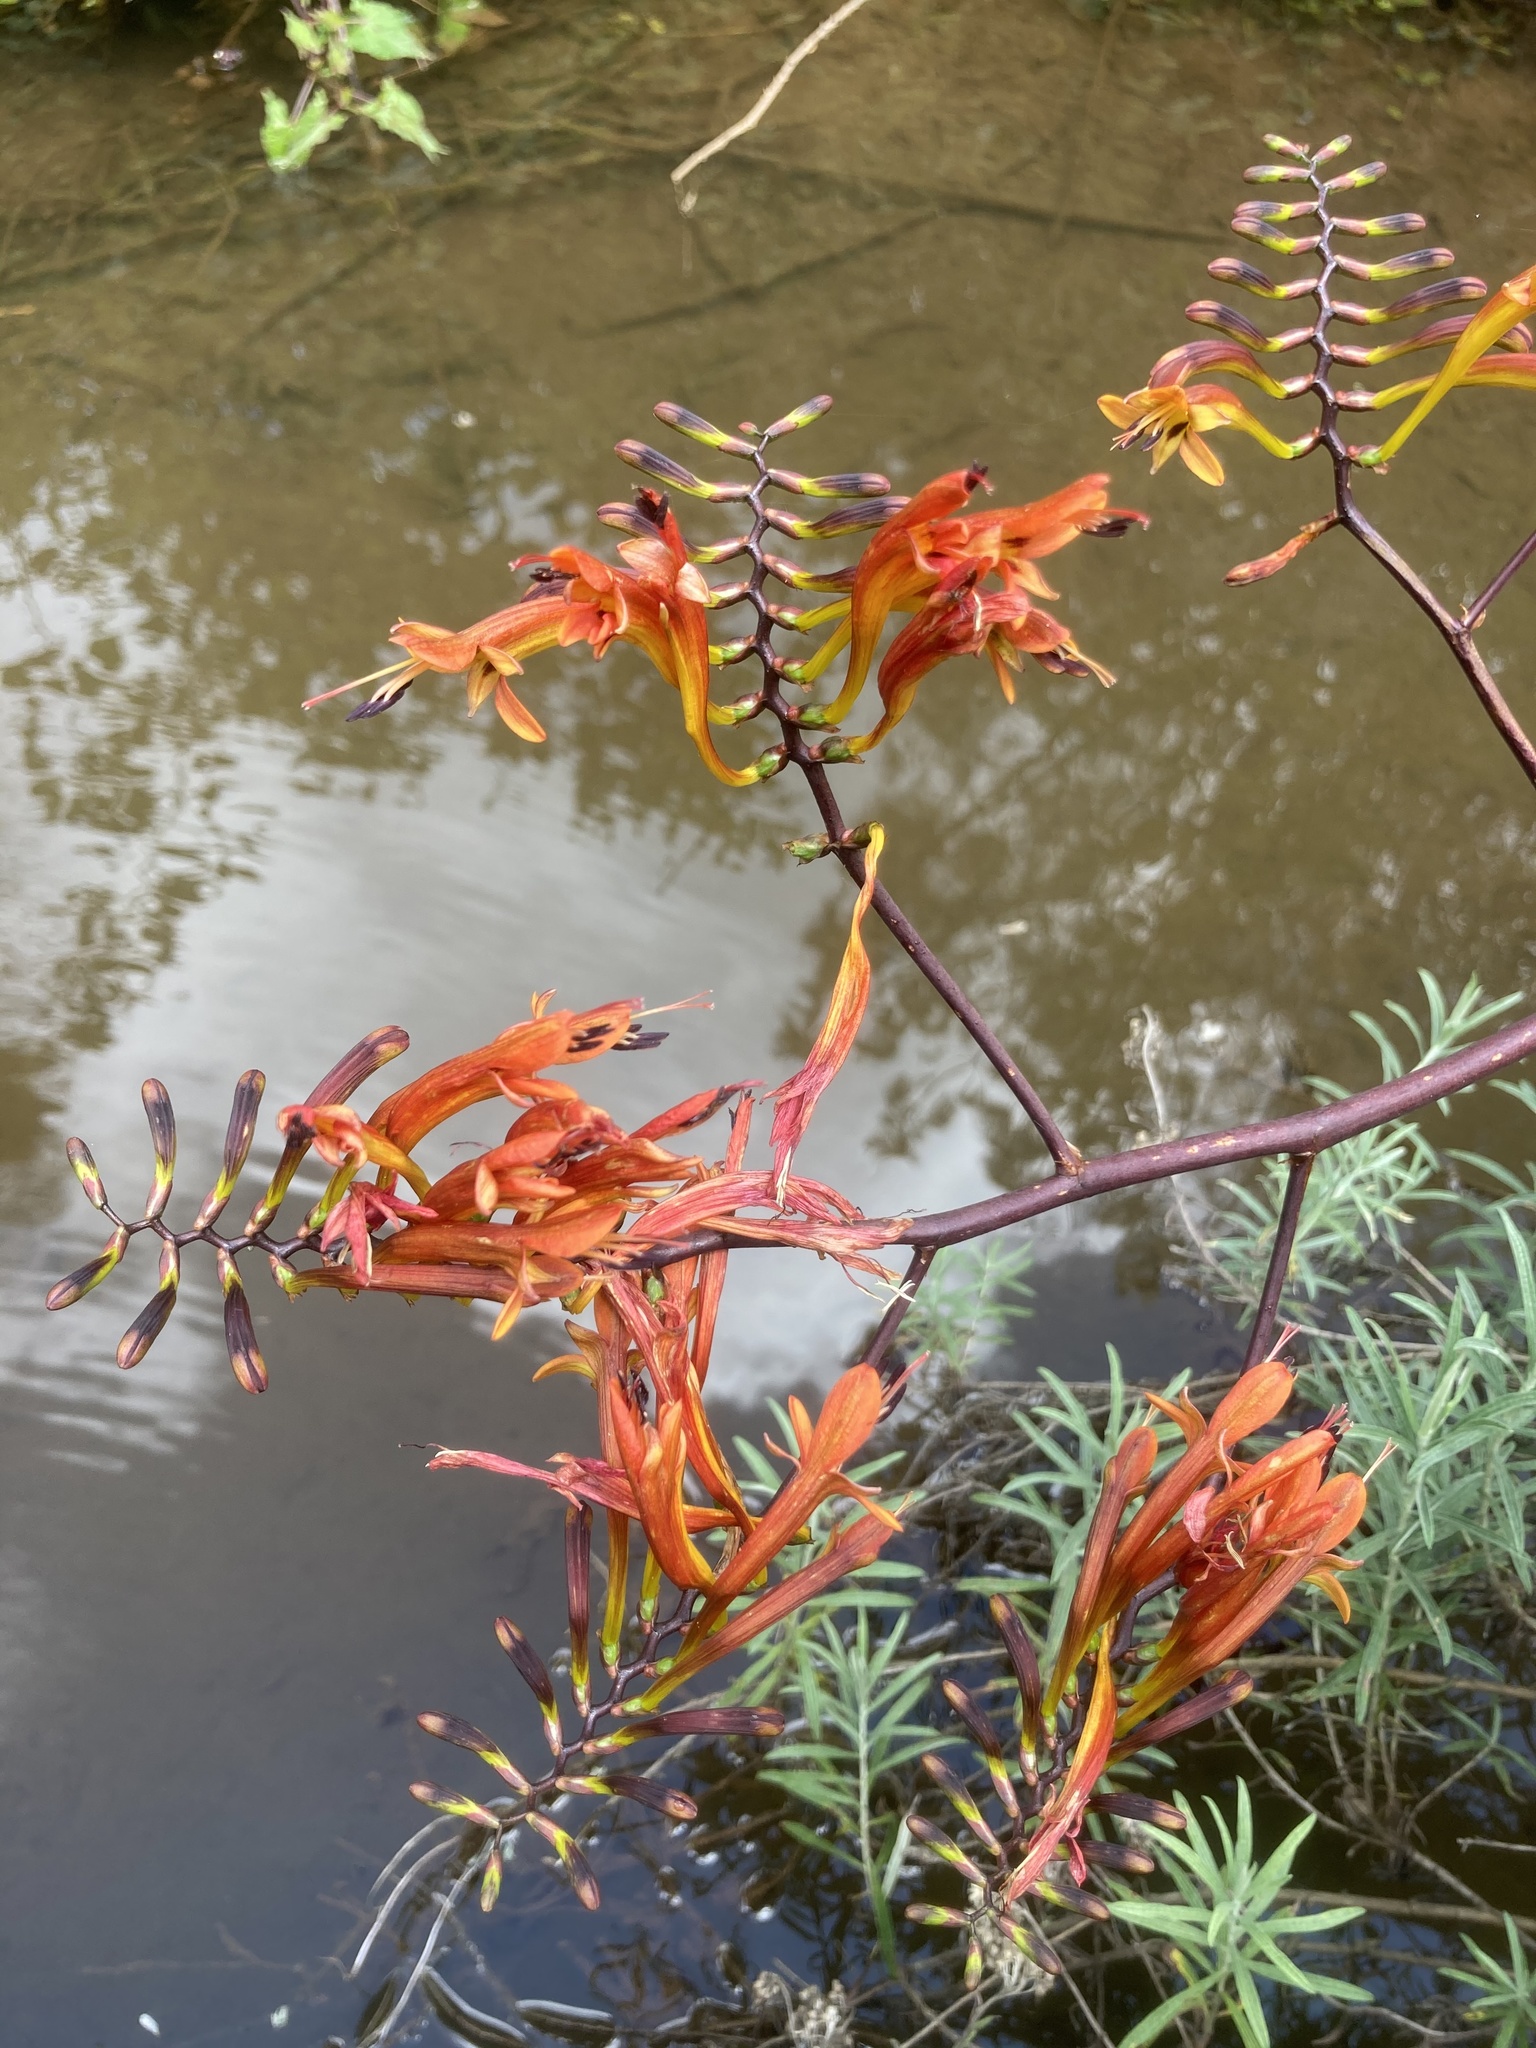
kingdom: Plantae
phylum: Tracheophyta
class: Liliopsida
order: Asparagales
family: Iridaceae
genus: Crocosmia
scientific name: Crocosmia paniculata
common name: Aunt eliza
